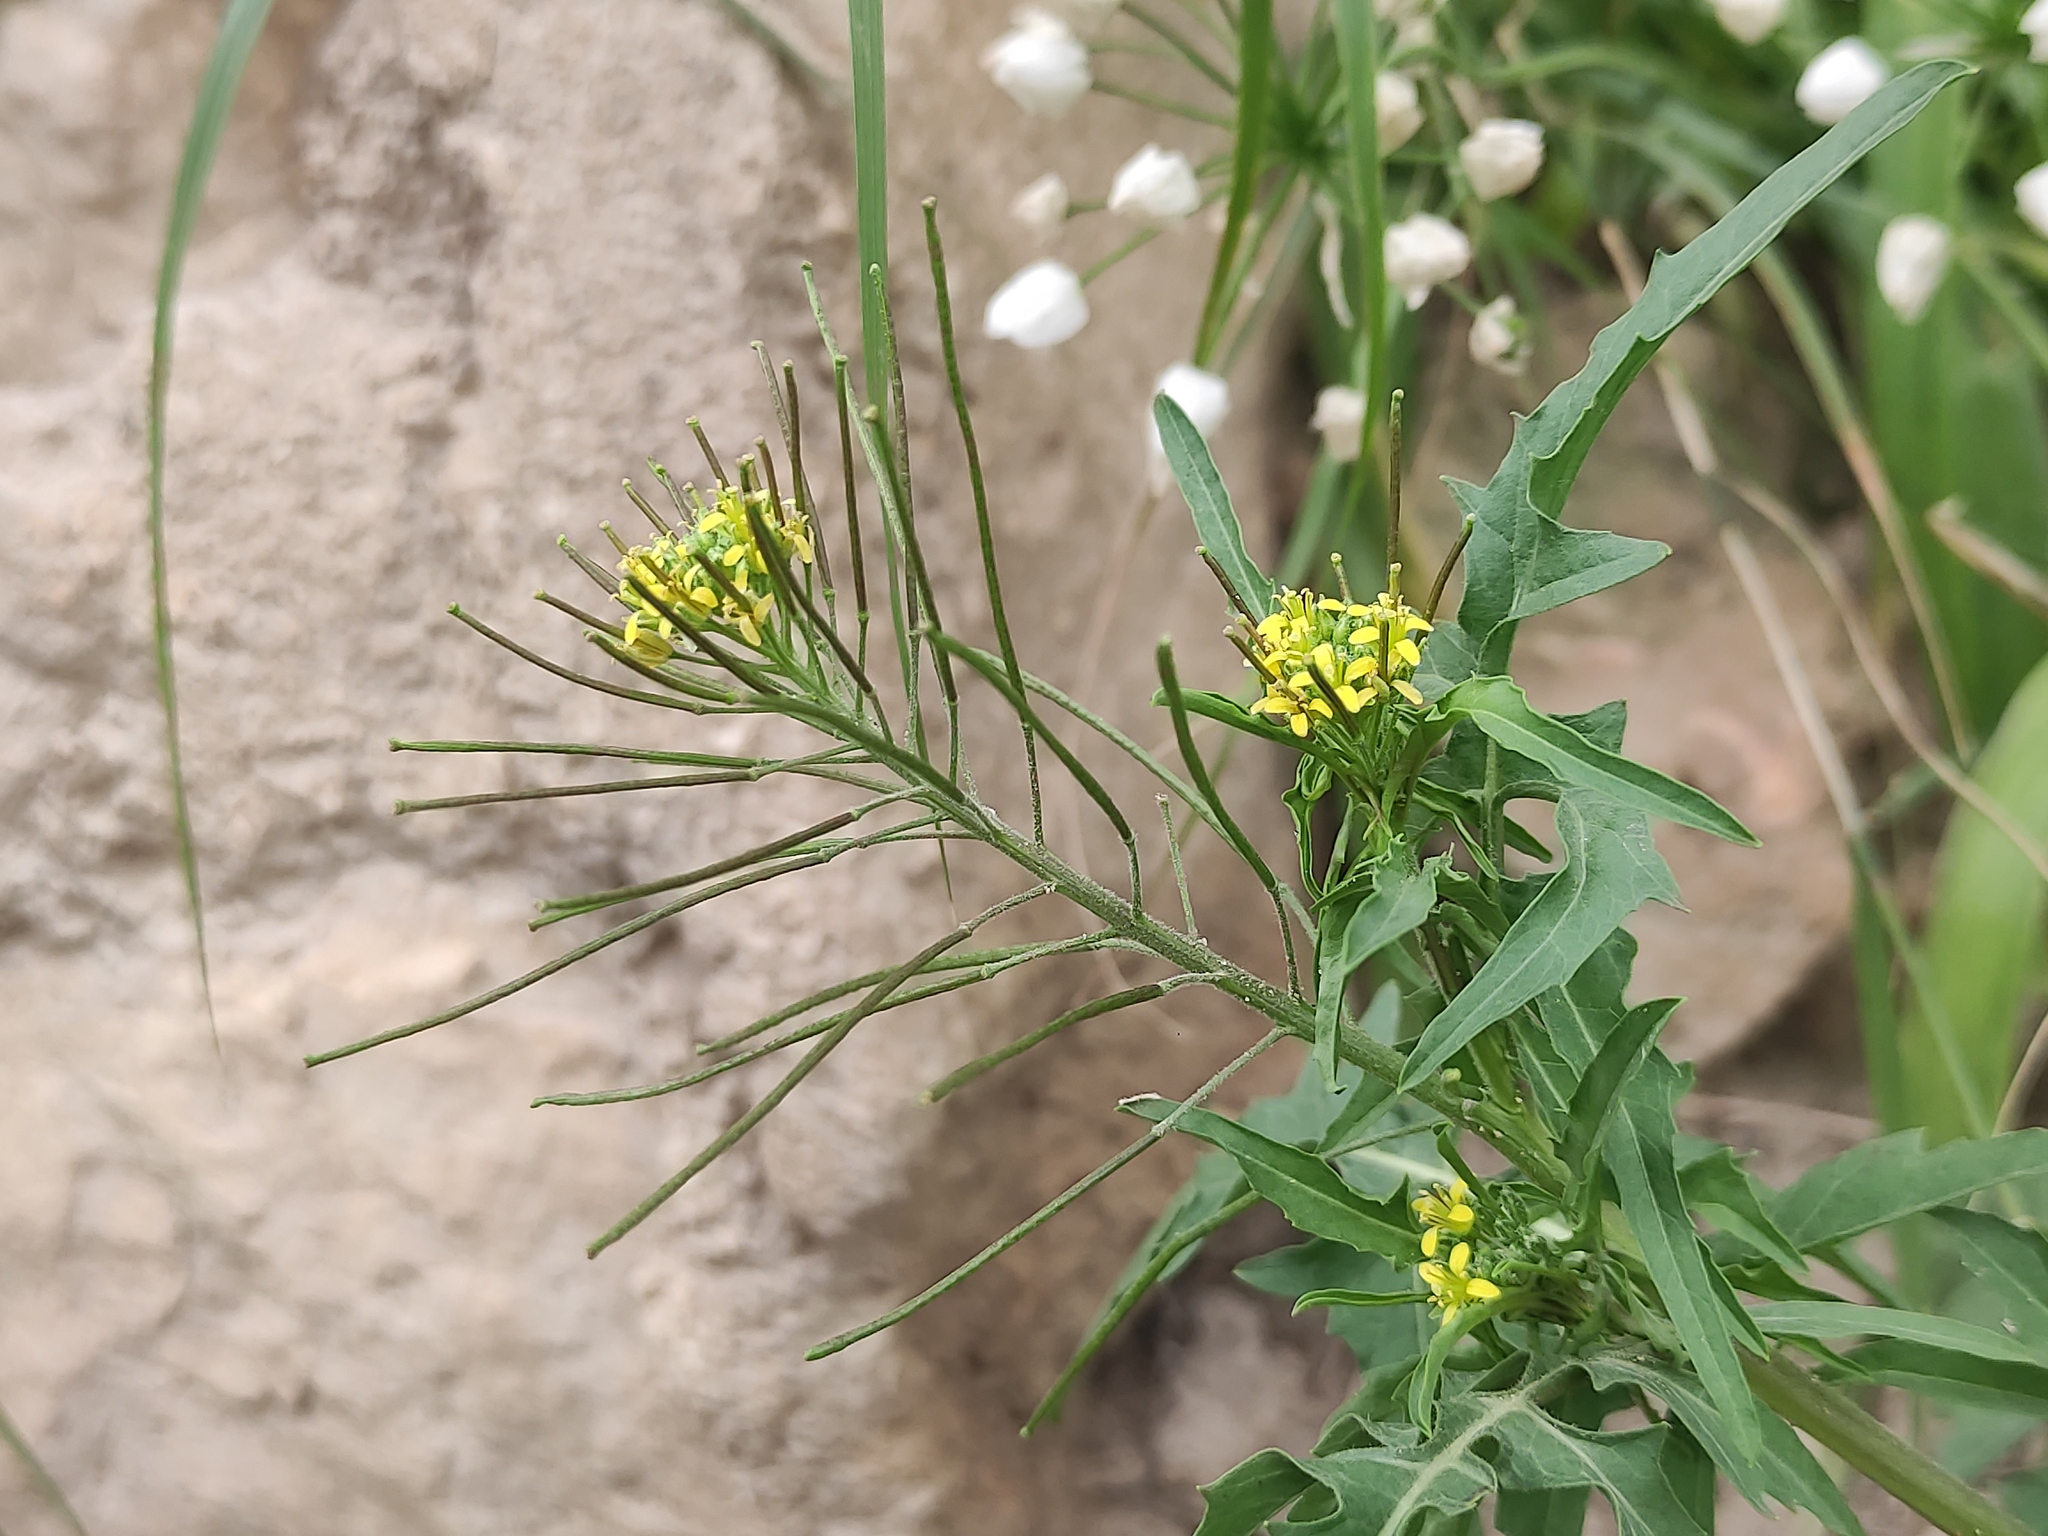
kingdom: Plantae
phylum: Tracheophyta
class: Magnoliopsida
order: Brassicales
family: Brassicaceae
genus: Sisymbrium
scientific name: Sisymbrium irio
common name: London rocket
